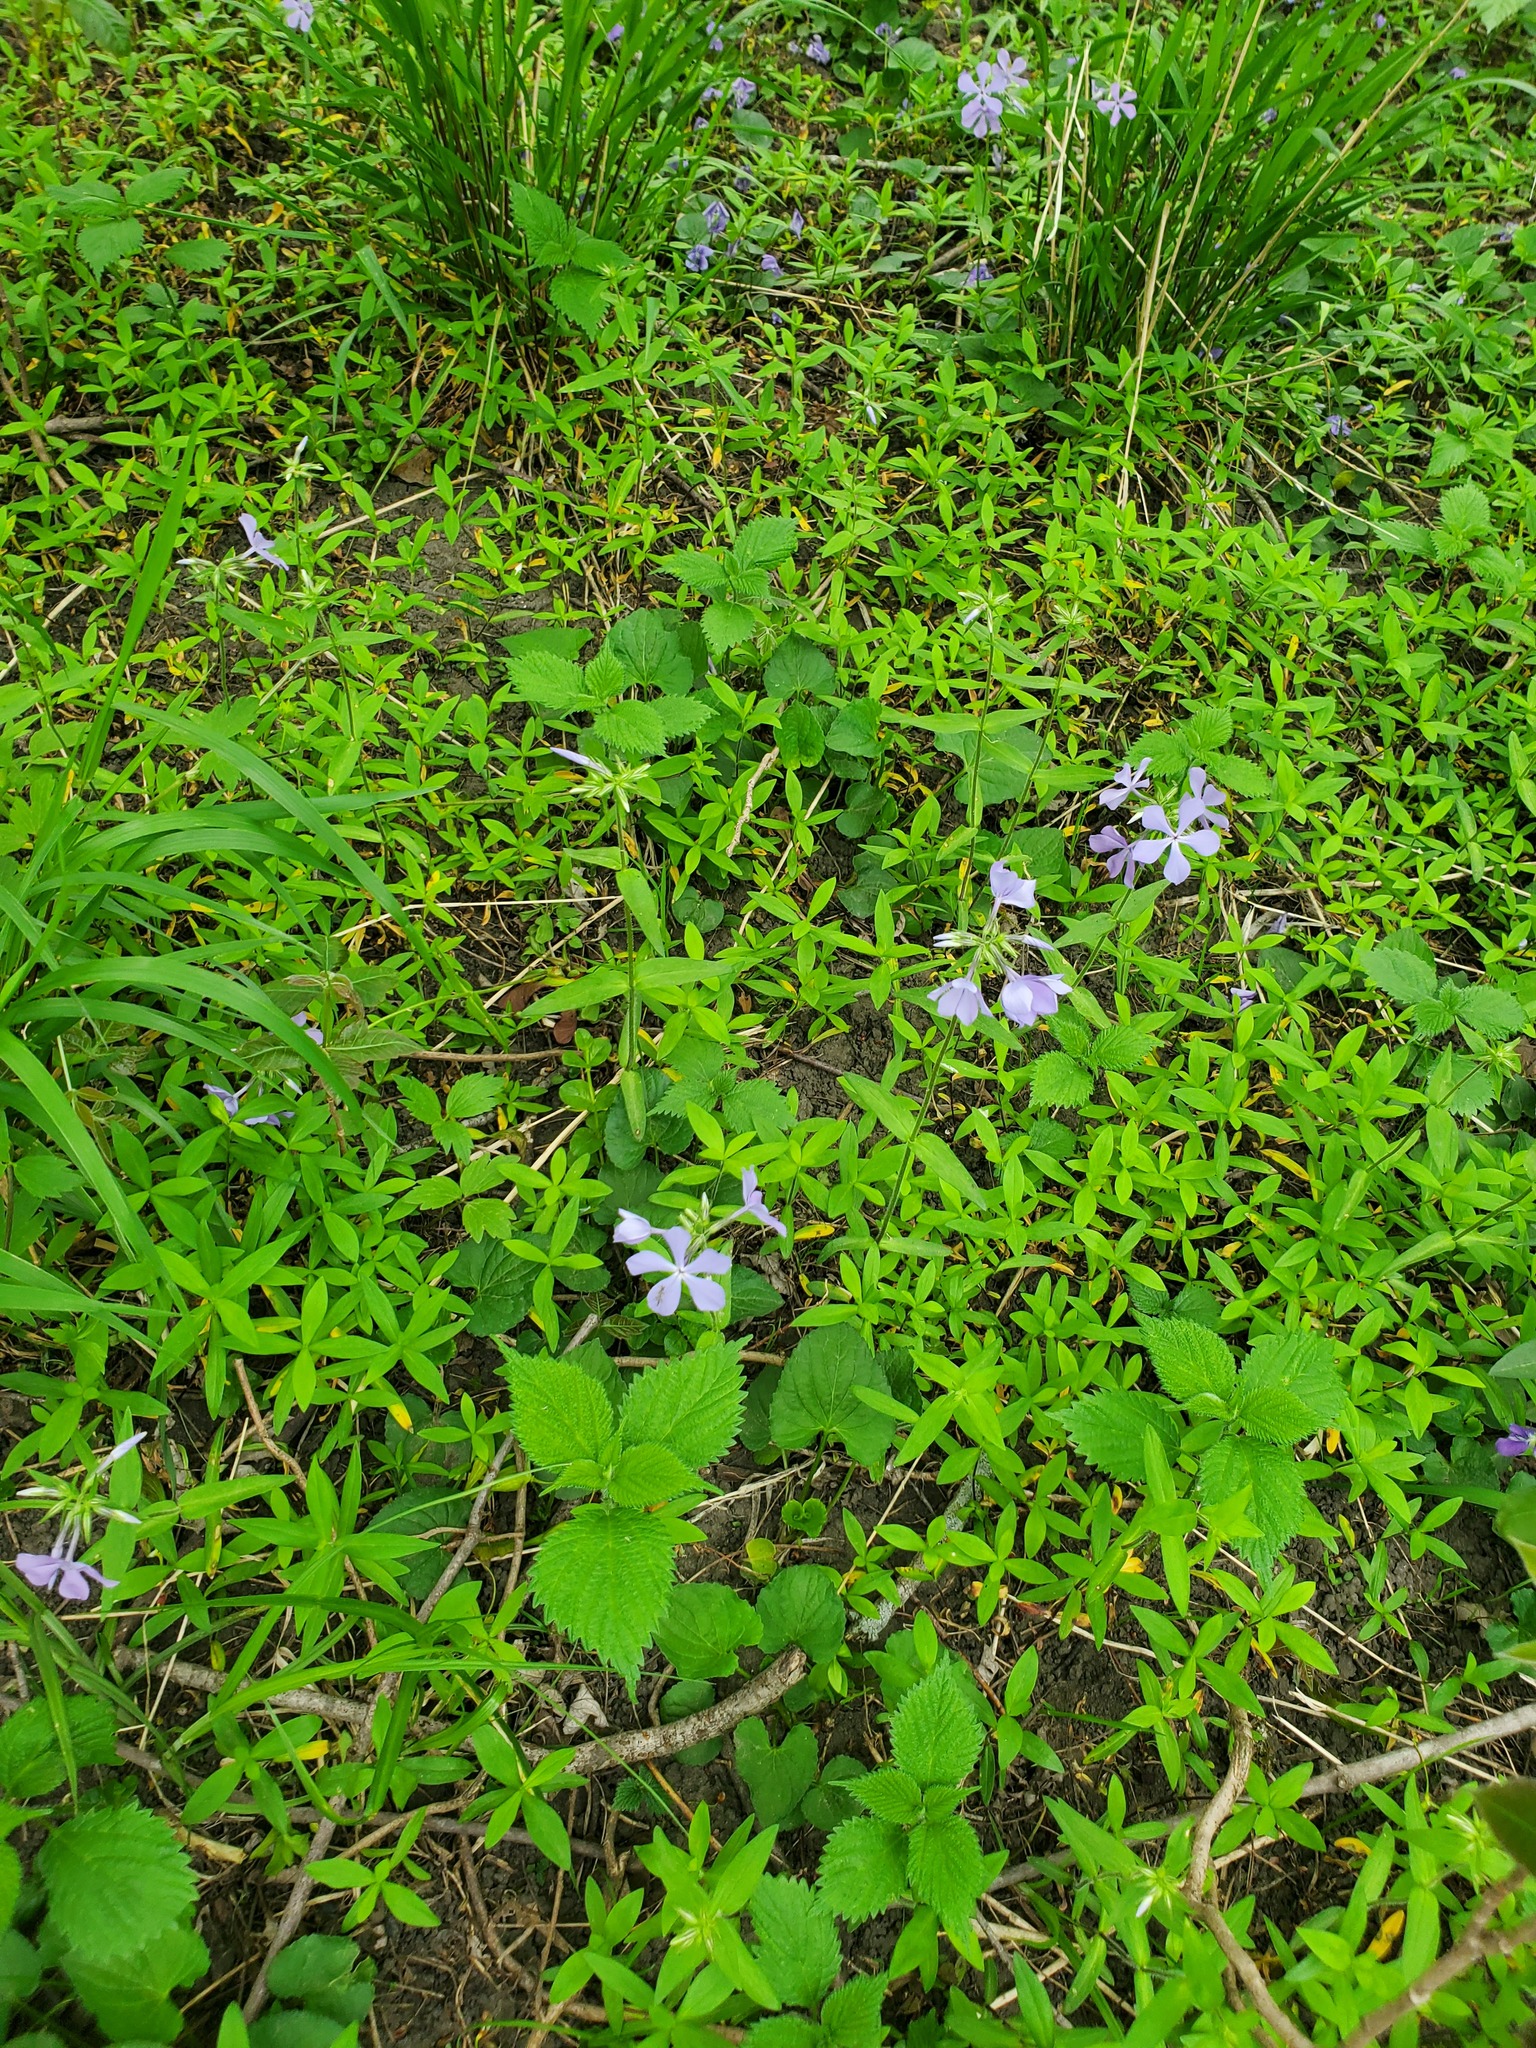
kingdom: Plantae
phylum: Tracheophyta
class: Magnoliopsida
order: Ericales
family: Polemoniaceae
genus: Phlox
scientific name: Phlox divaricata
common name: Blue phlox
